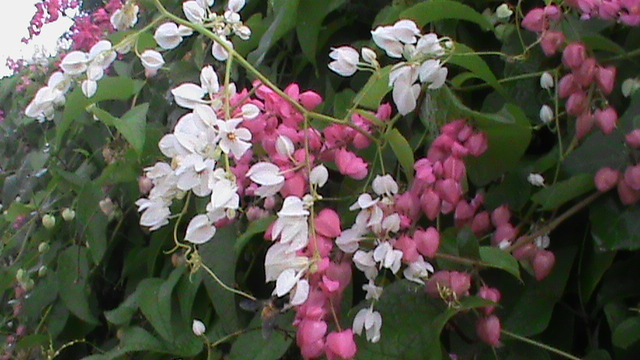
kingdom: Plantae
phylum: Tracheophyta
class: Magnoliopsida
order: Caryophyllales
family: Polygonaceae
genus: Antigonon
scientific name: Antigonon leptopus
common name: Coral vine
